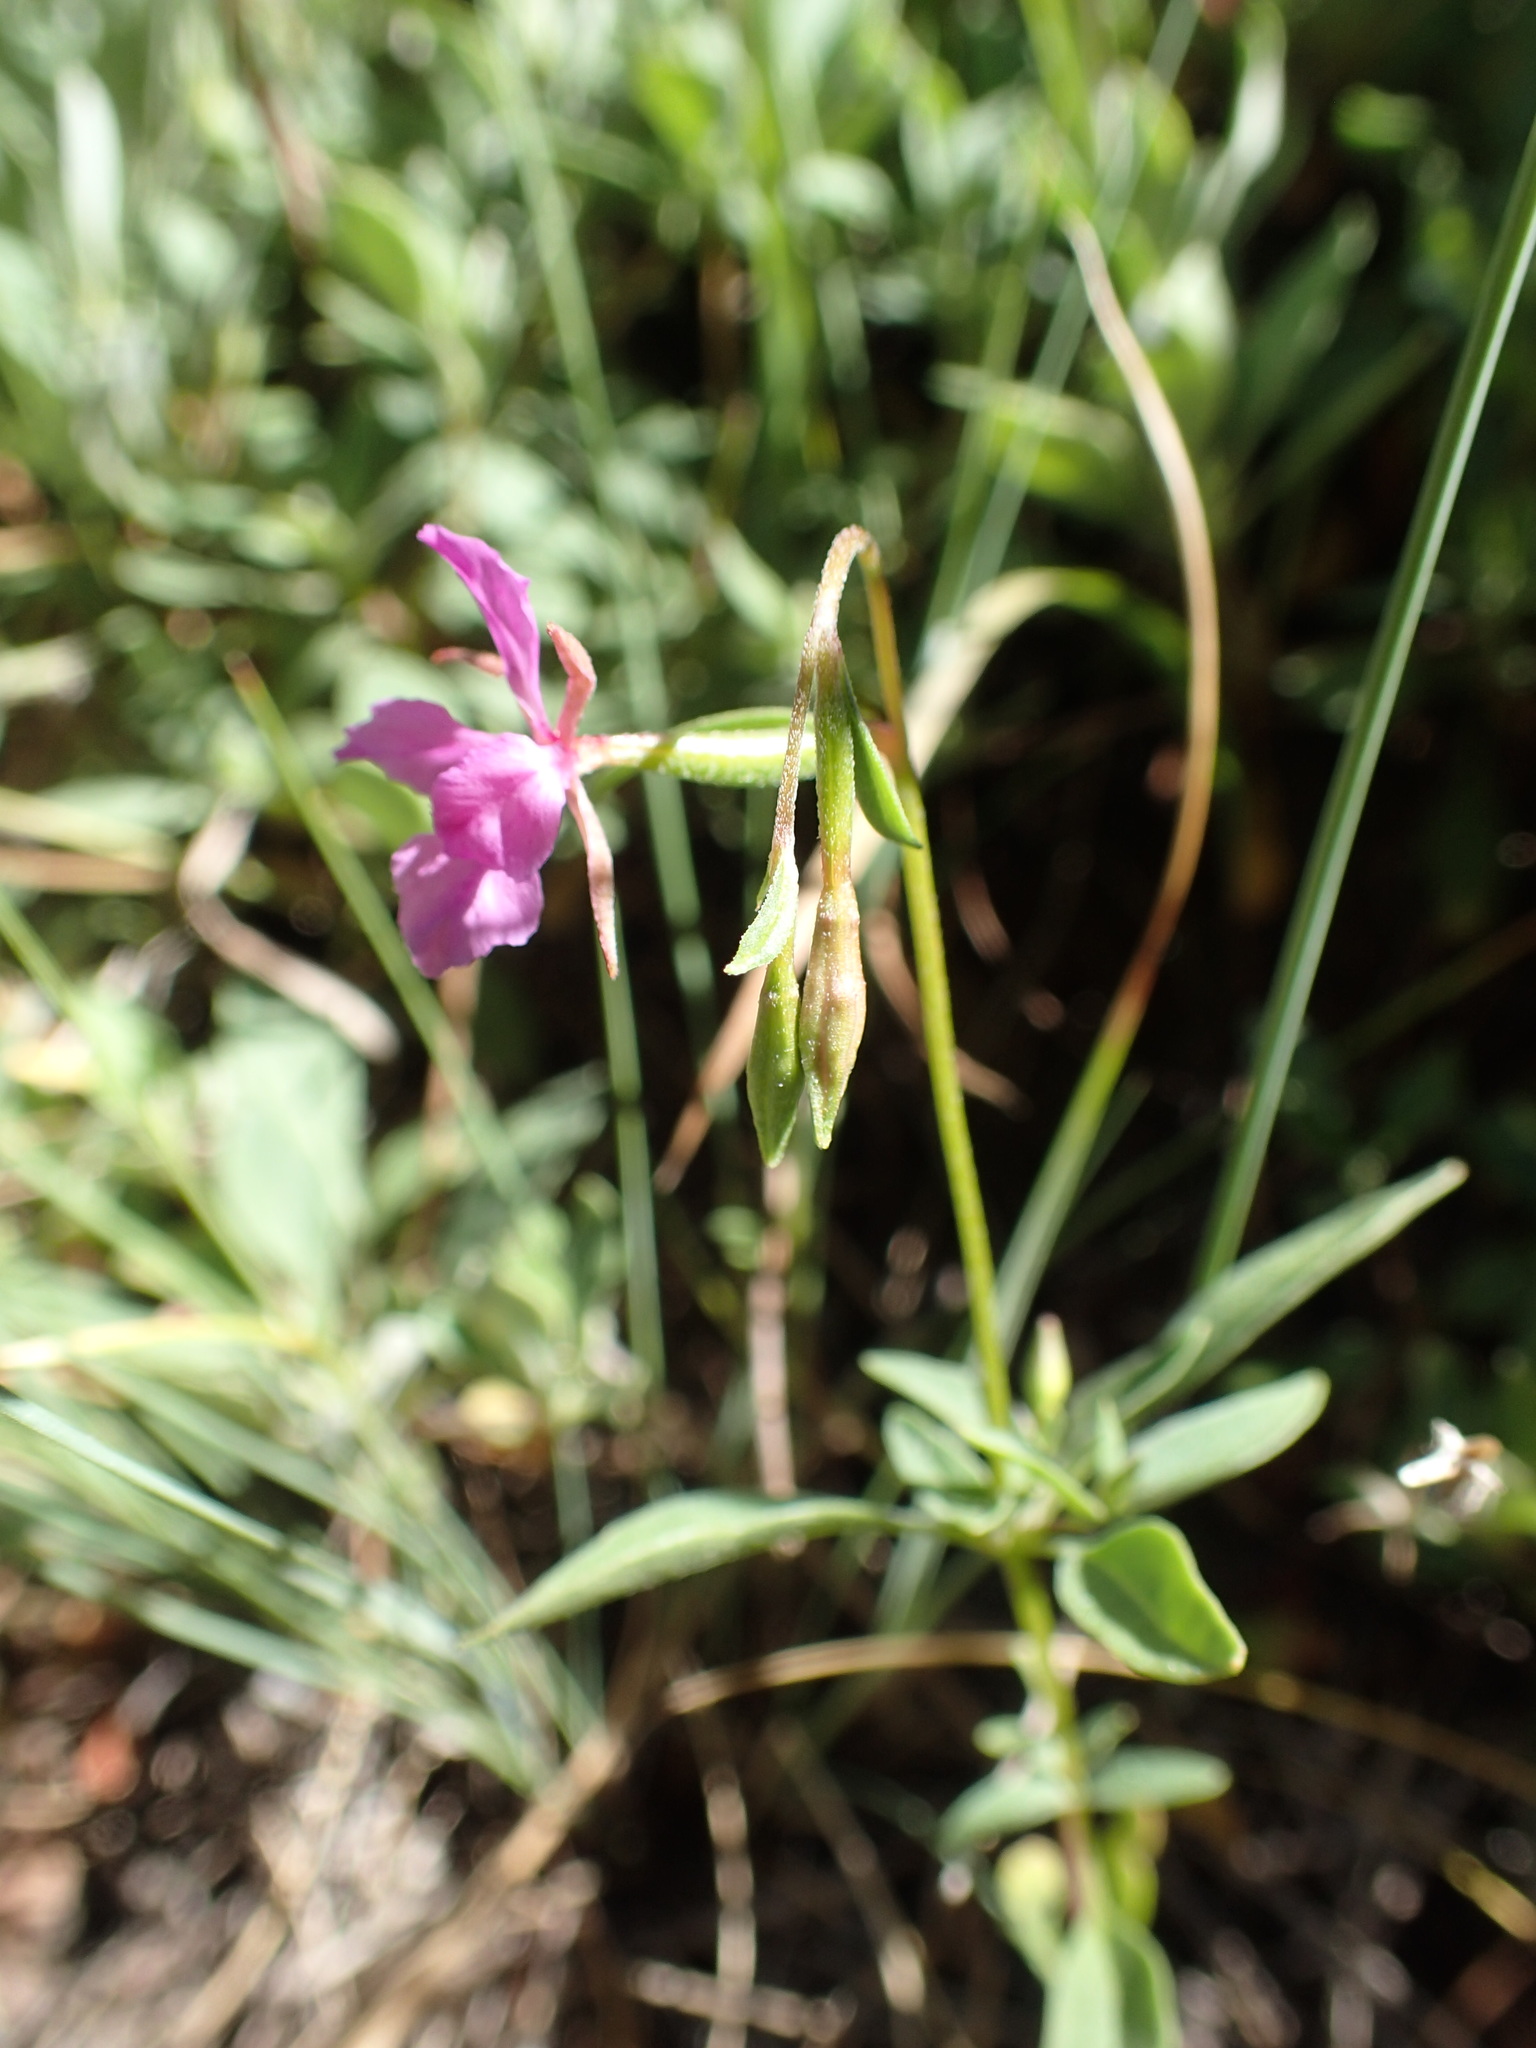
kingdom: Plantae
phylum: Tracheophyta
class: Magnoliopsida
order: Myrtales
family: Onagraceae
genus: Clarkia
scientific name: Clarkia rhomboidea
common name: Broadleaf clarkia
